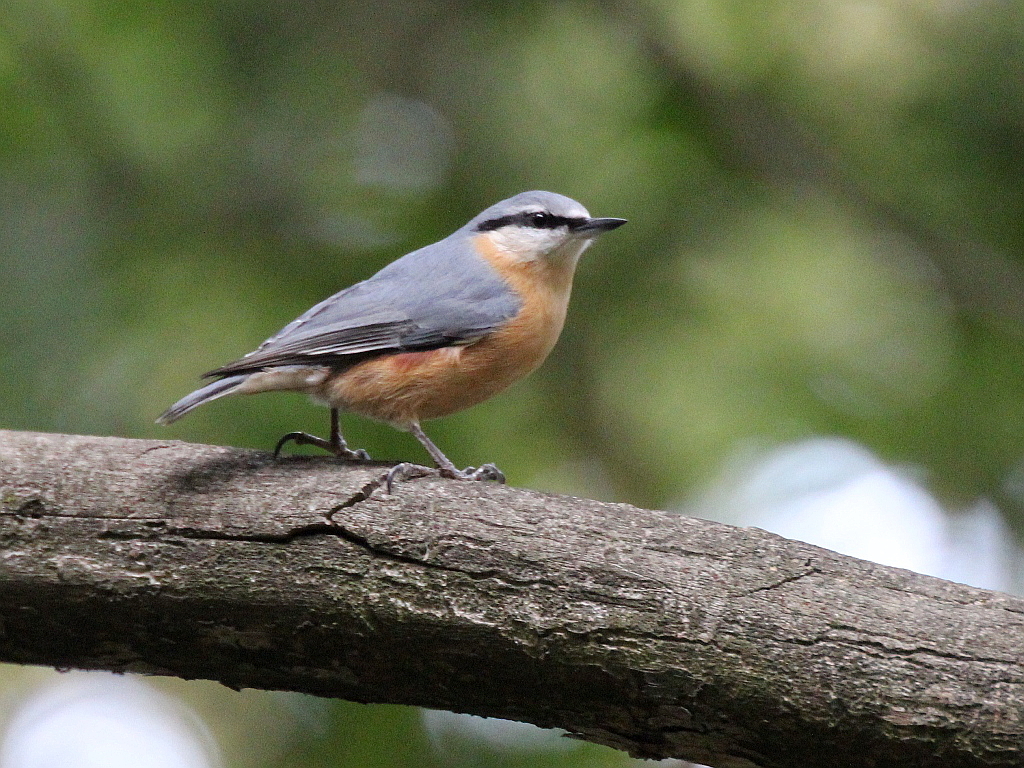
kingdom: Animalia
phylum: Chordata
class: Aves
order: Passeriformes
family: Sittidae
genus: Sitta
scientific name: Sitta europaea
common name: Eurasian nuthatch
